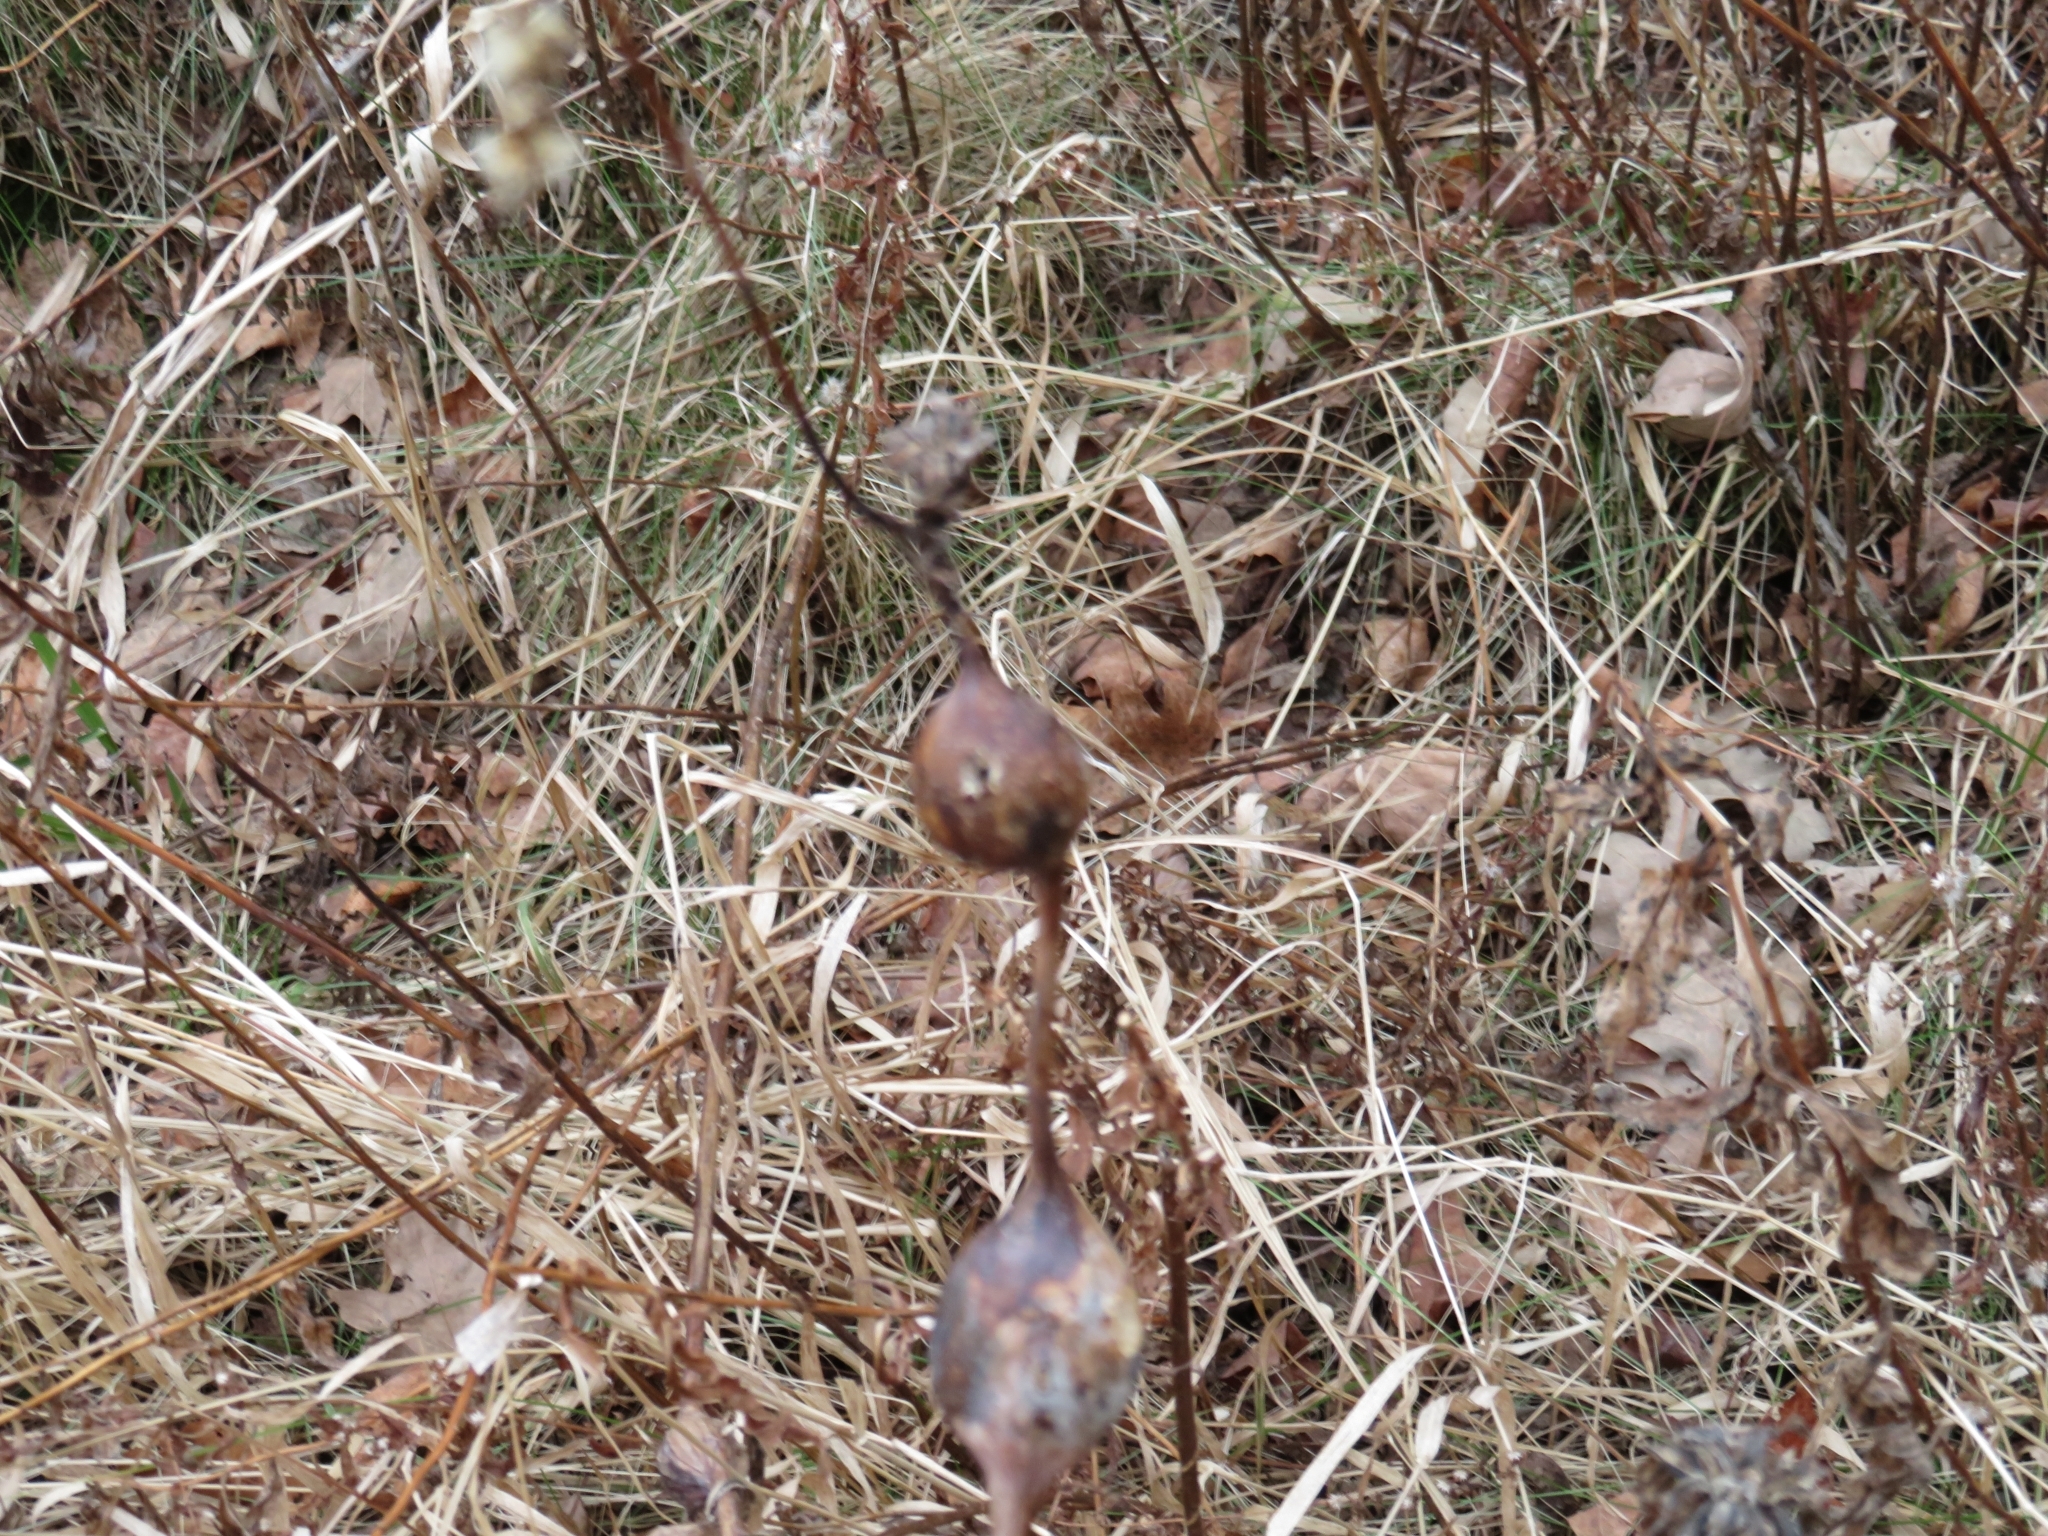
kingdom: Animalia
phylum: Arthropoda
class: Insecta
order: Diptera
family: Tephritidae
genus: Eurosta
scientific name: Eurosta solidaginis
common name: Goldenrod gall fly
